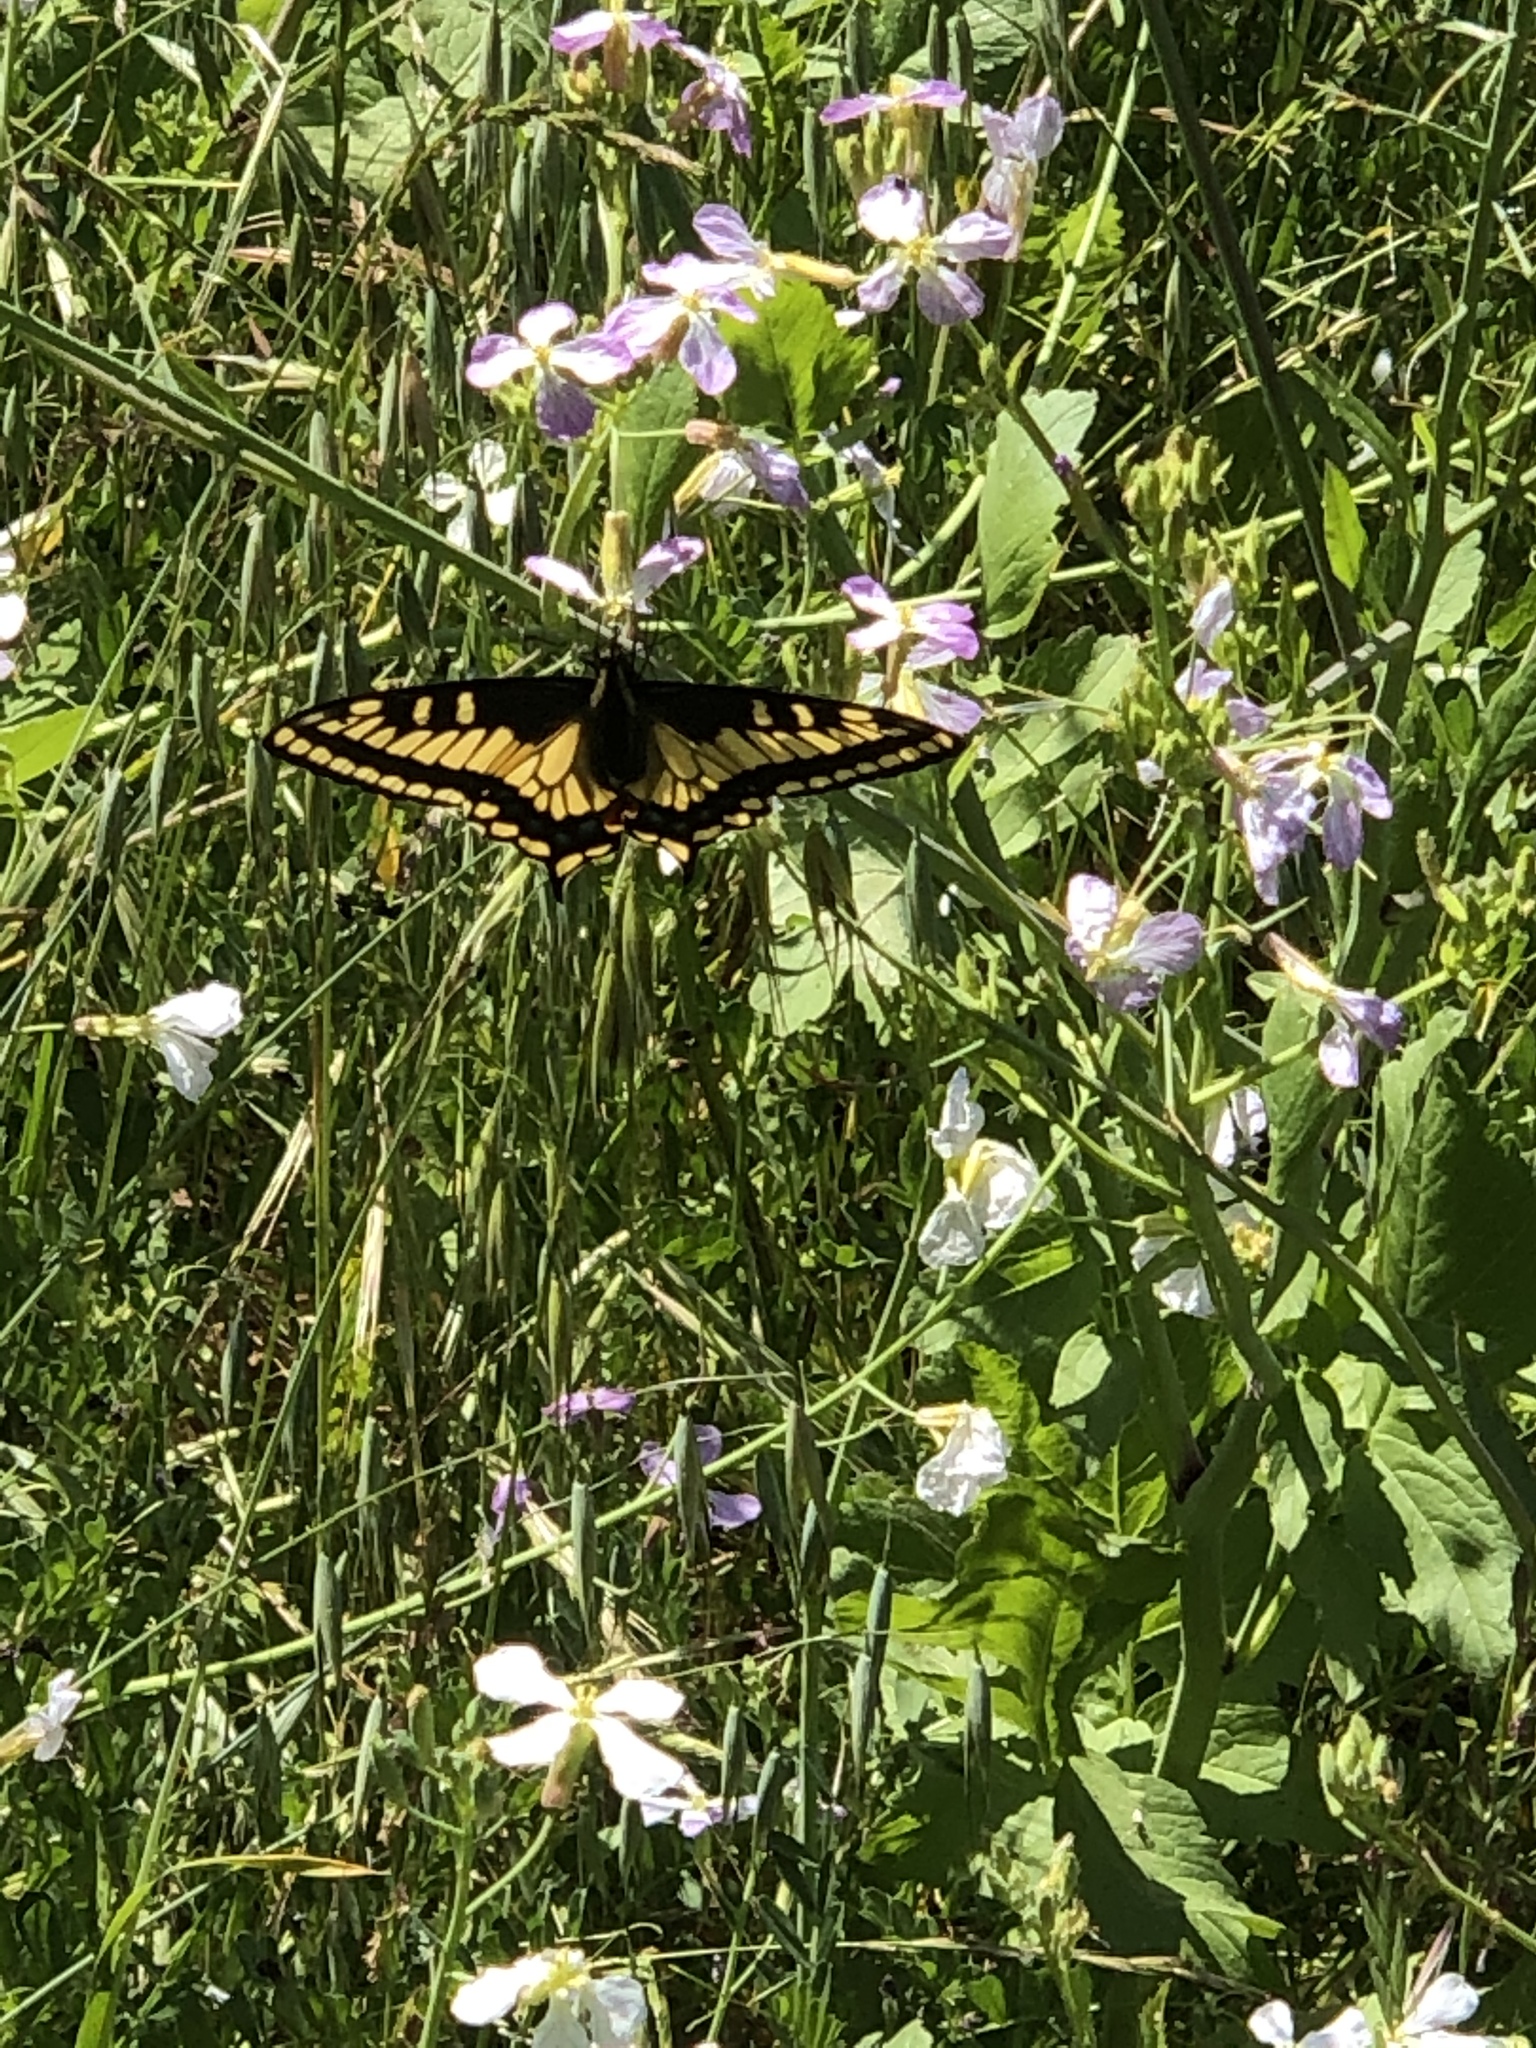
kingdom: Animalia
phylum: Arthropoda
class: Insecta
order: Lepidoptera
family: Papilionidae
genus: Papilio
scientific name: Papilio zelicaon
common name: Anise swallowtail
